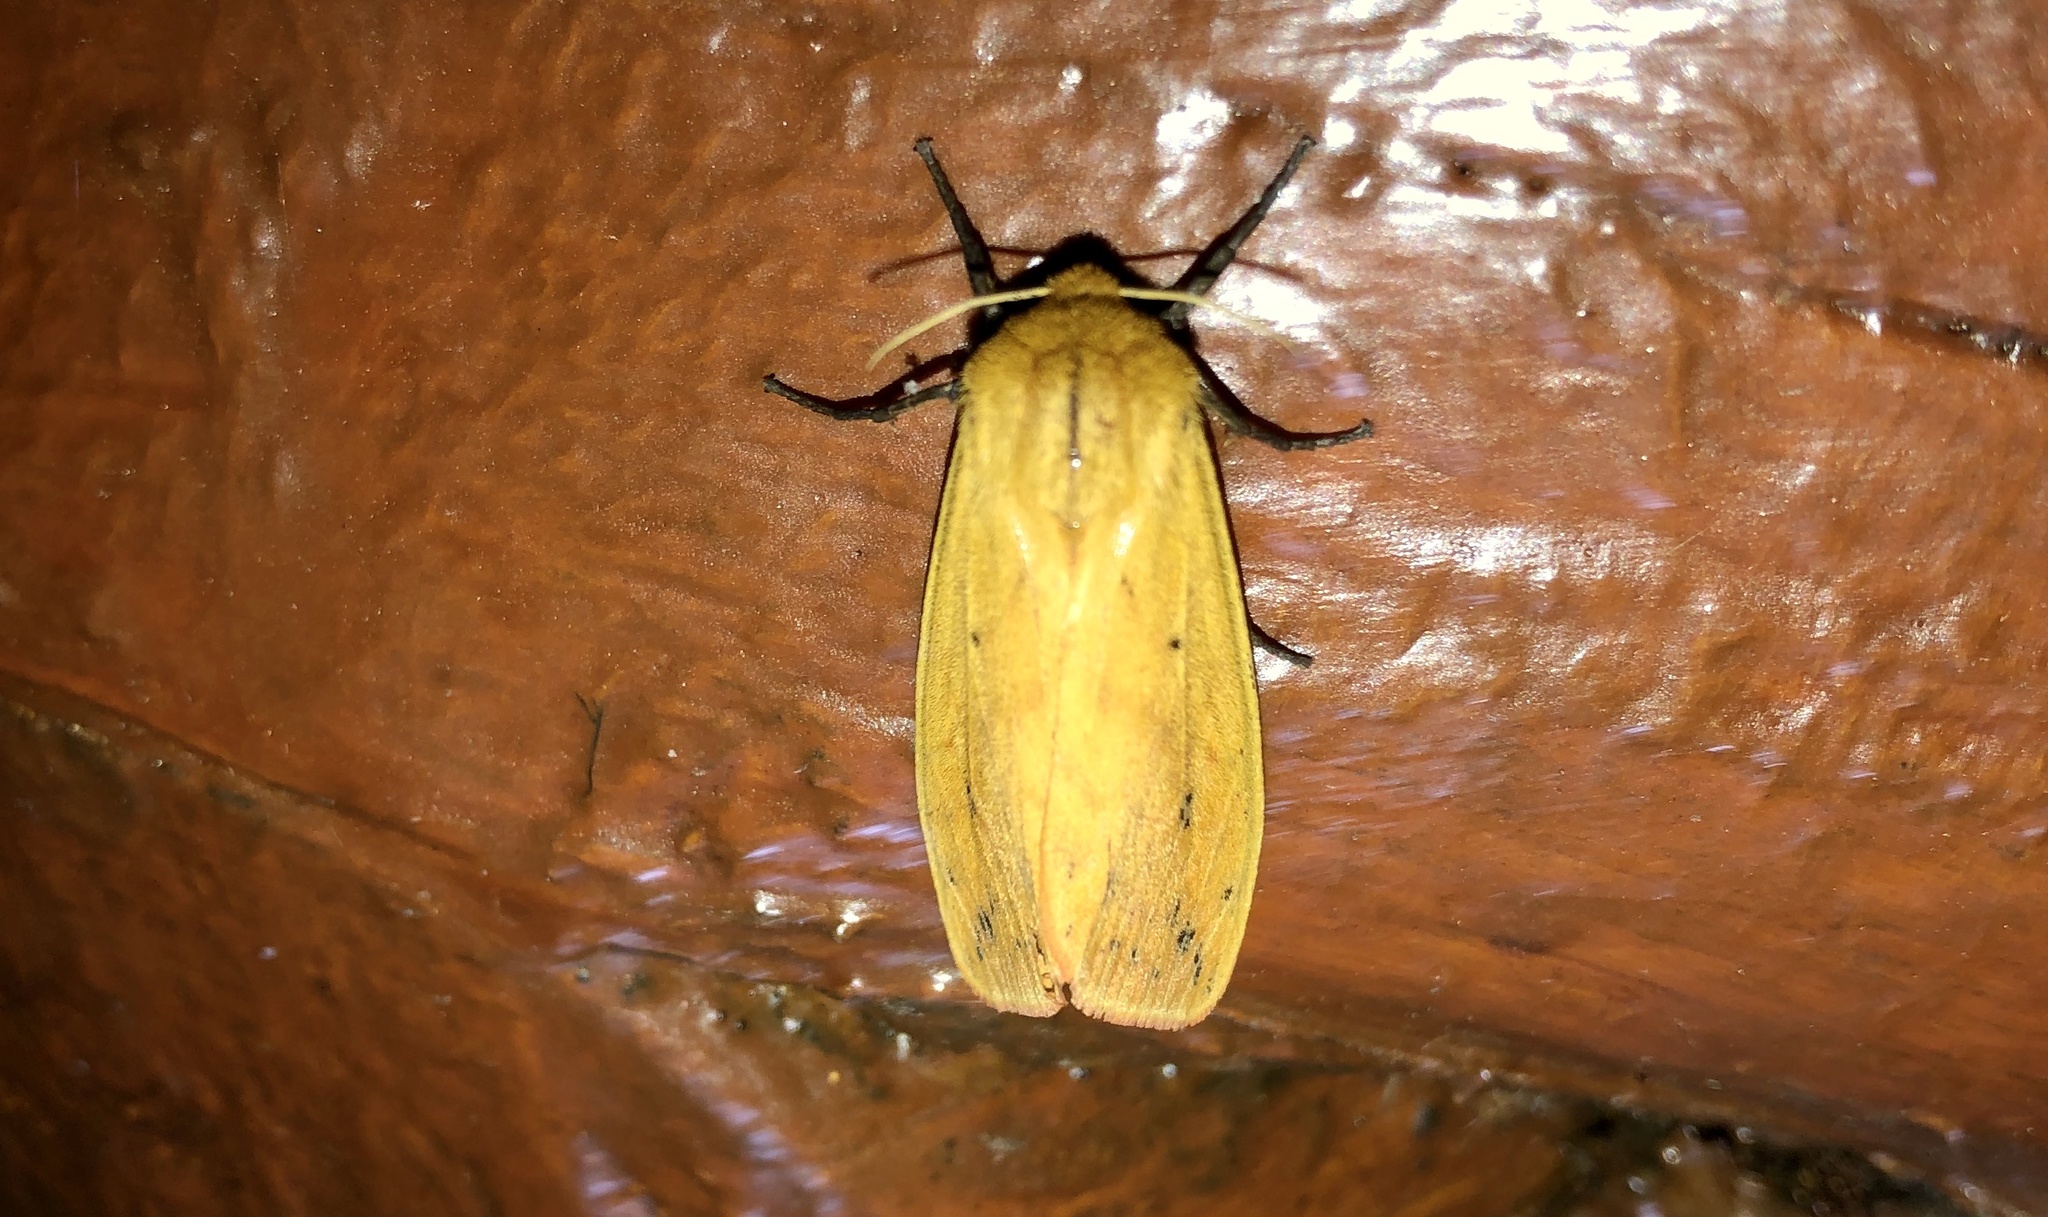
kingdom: Animalia
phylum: Arthropoda
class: Insecta
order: Lepidoptera
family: Erebidae
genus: Pyrrharctia
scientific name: Pyrrharctia isabella
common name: Isabella tiger moth
